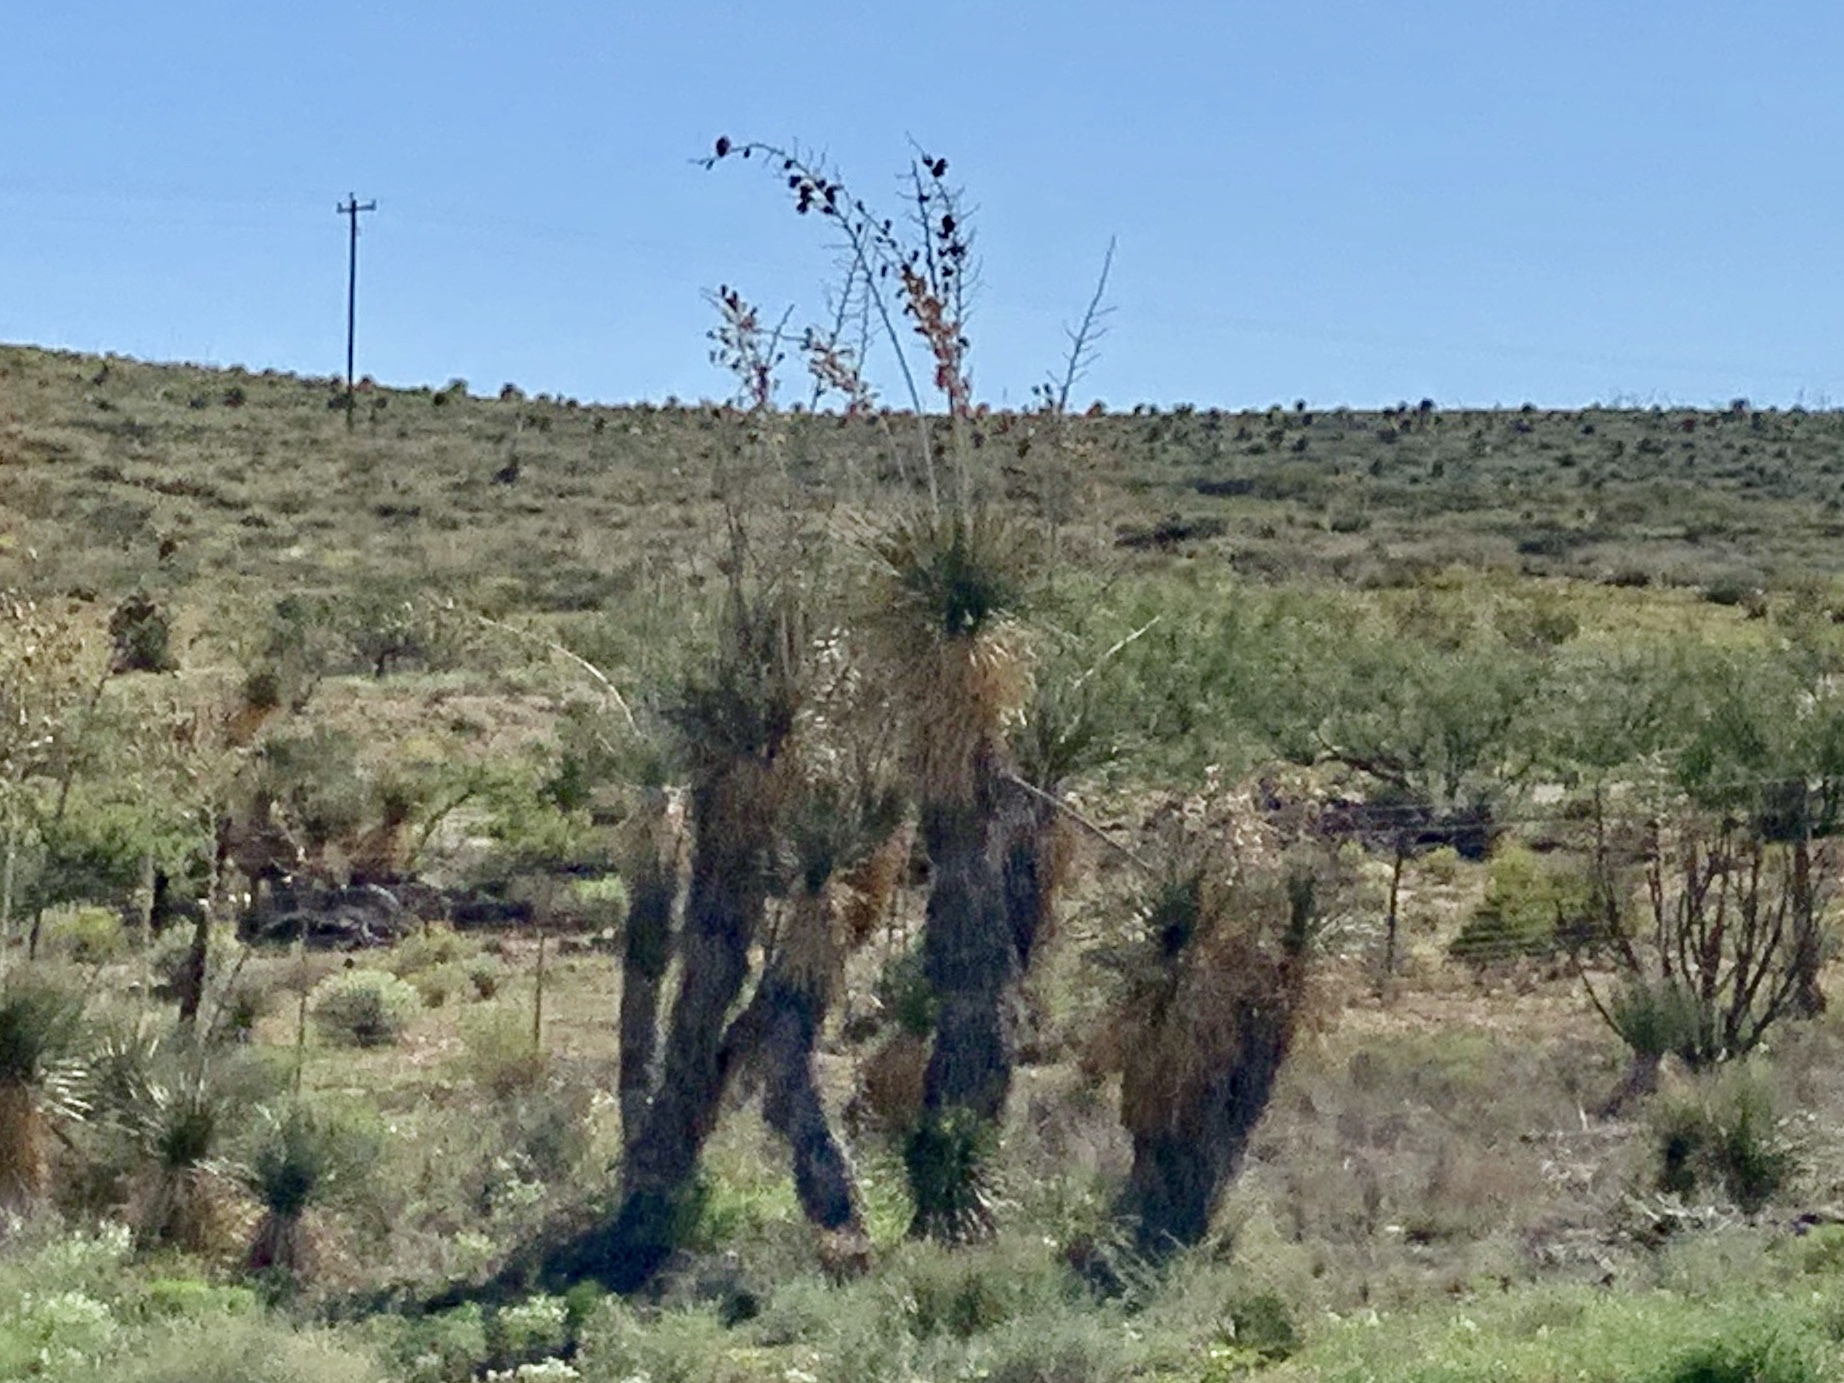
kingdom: Plantae
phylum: Tracheophyta
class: Liliopsida
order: Asparagales
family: Asparagaceae
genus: Yucca
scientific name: Yucca elata
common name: Palmella
